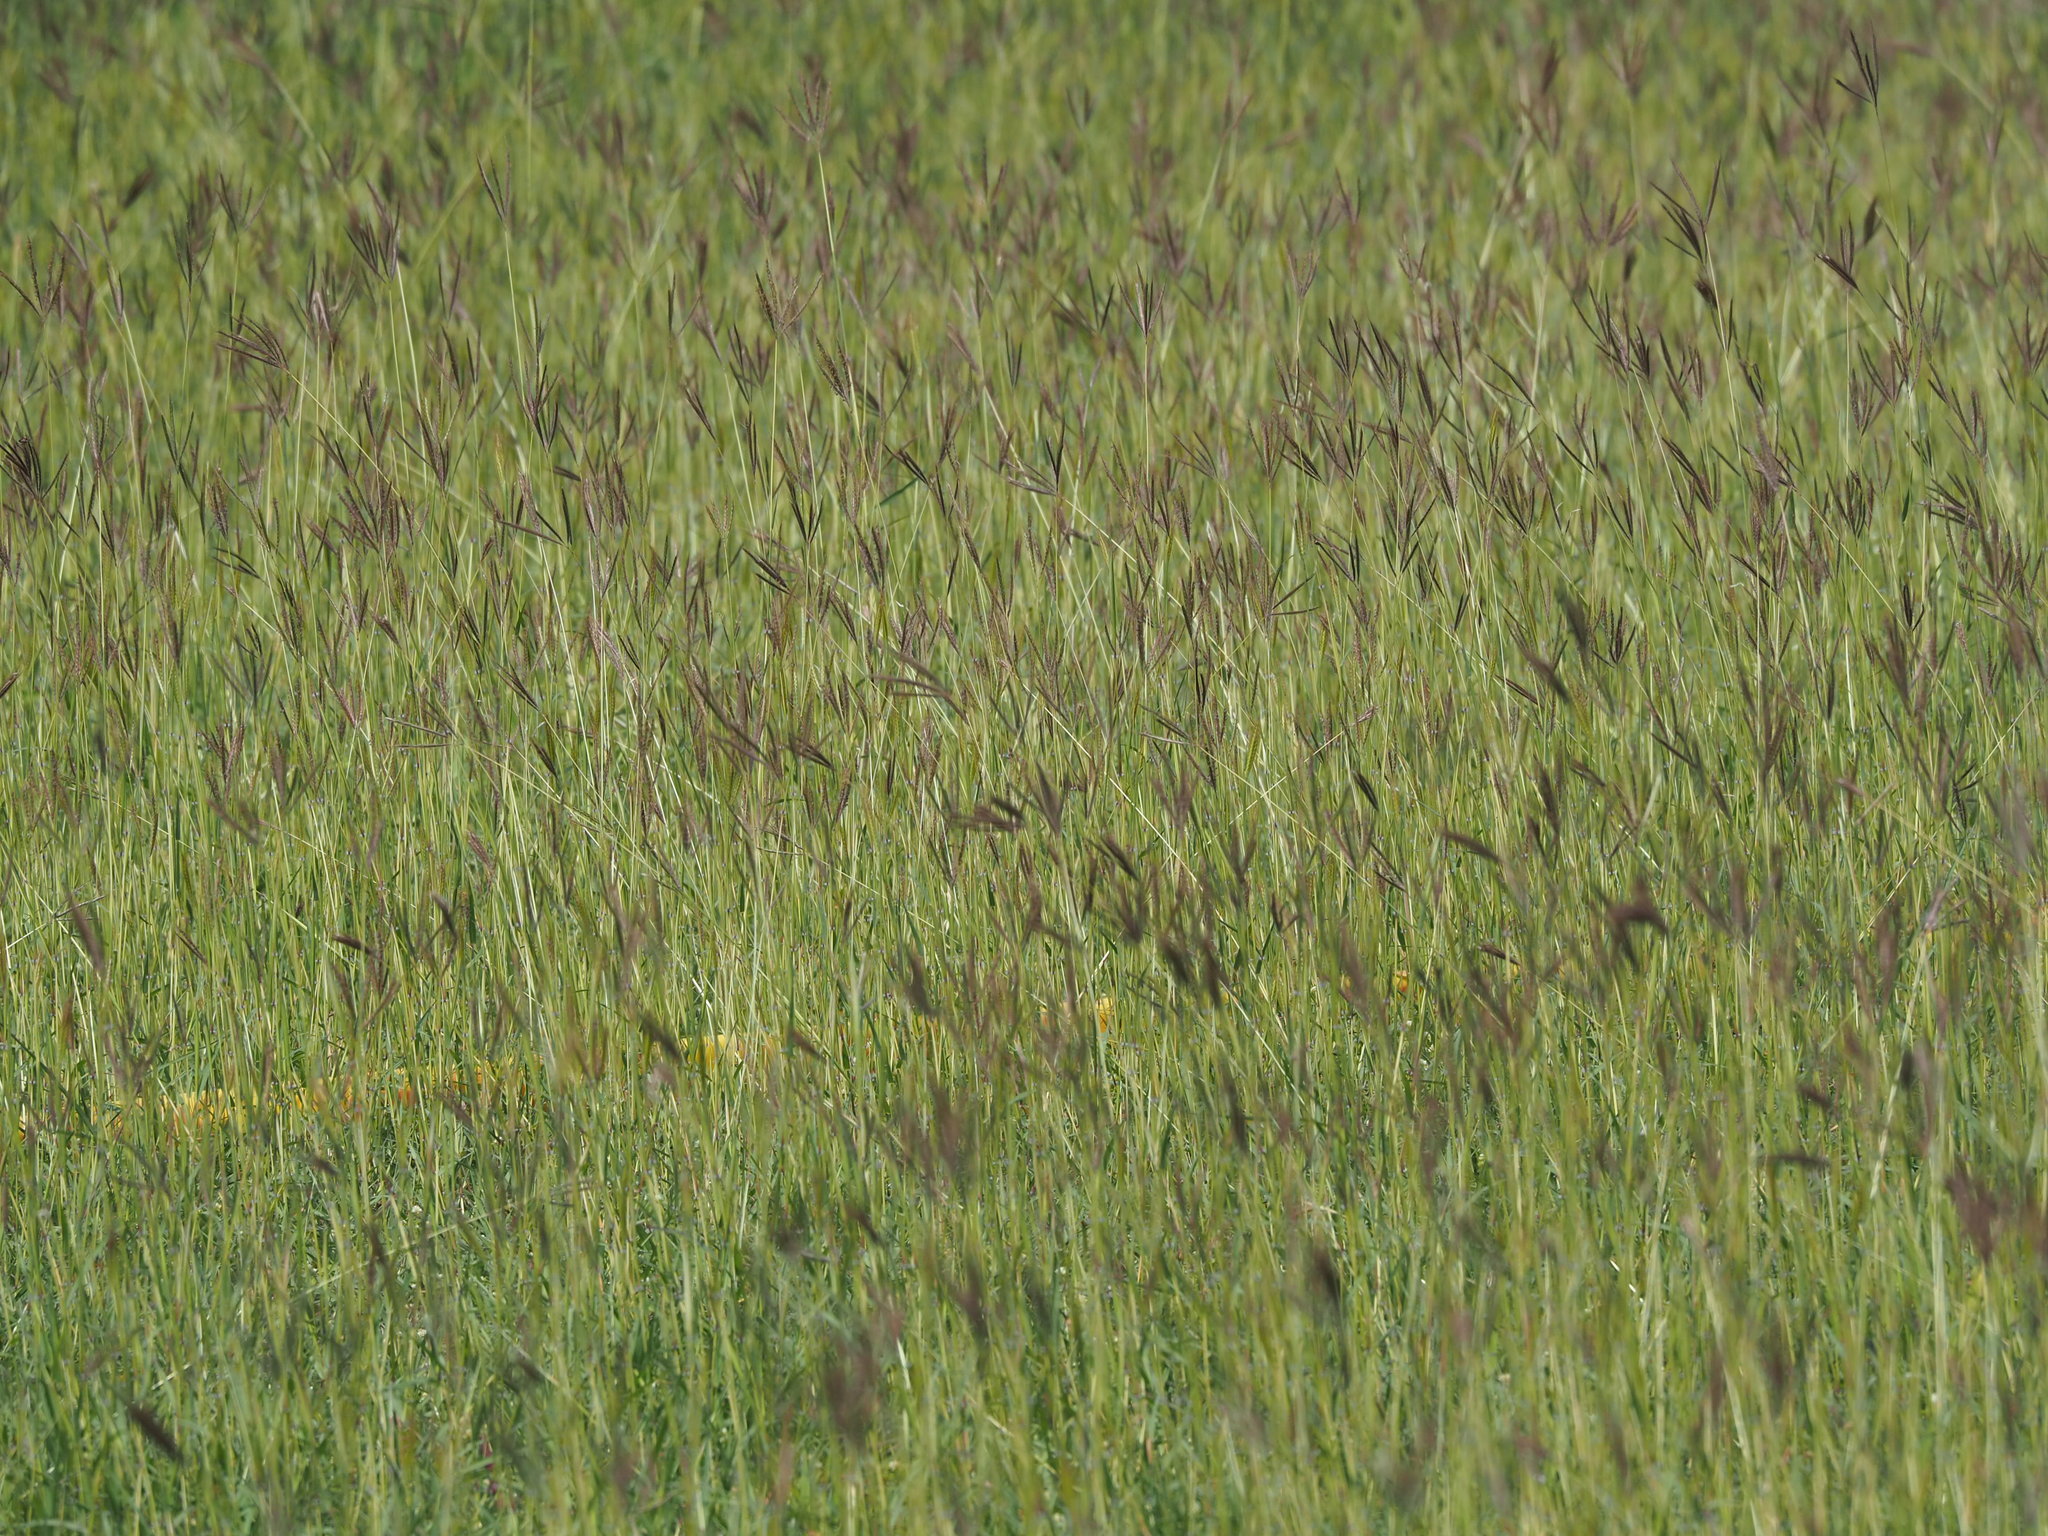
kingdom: Plantae
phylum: Tracheophyta
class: Liliopsida
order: Poales
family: Poaceae
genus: Dichanthium
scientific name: Dichanthium annulatum
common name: Kleberg's bluestem
